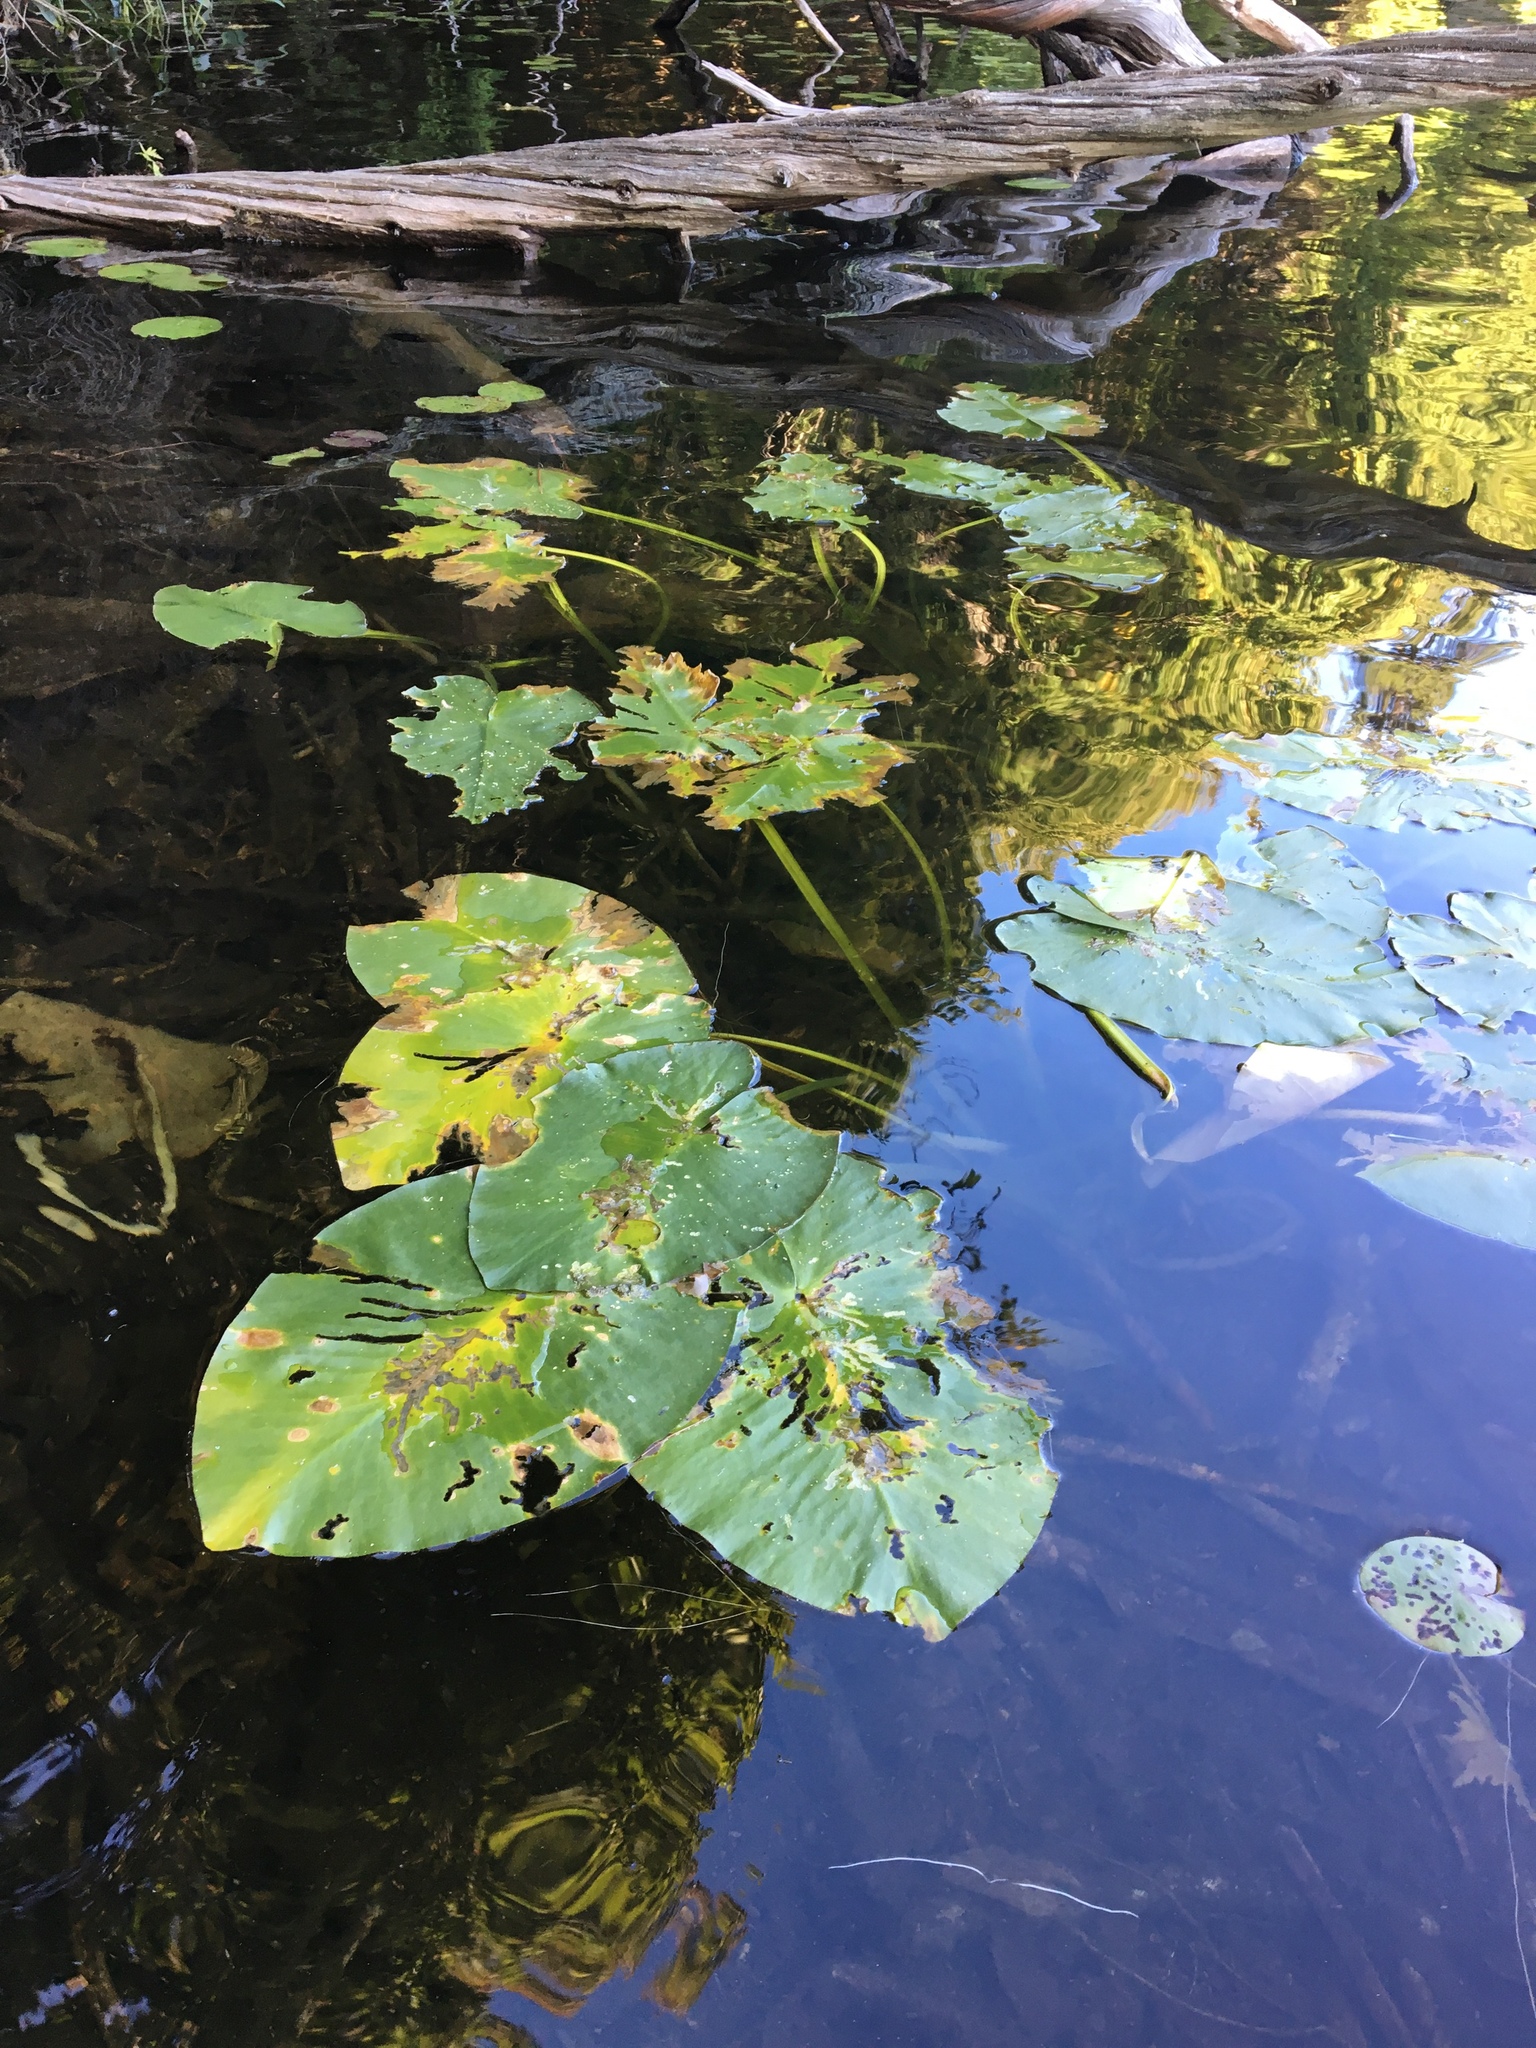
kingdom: Plantae
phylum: Tracheophyta
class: Magnoliopsida
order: Nymphaeales
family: Nymphaeaceae
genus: Nuphar
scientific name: Nuphar variegata
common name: Beaver-root
